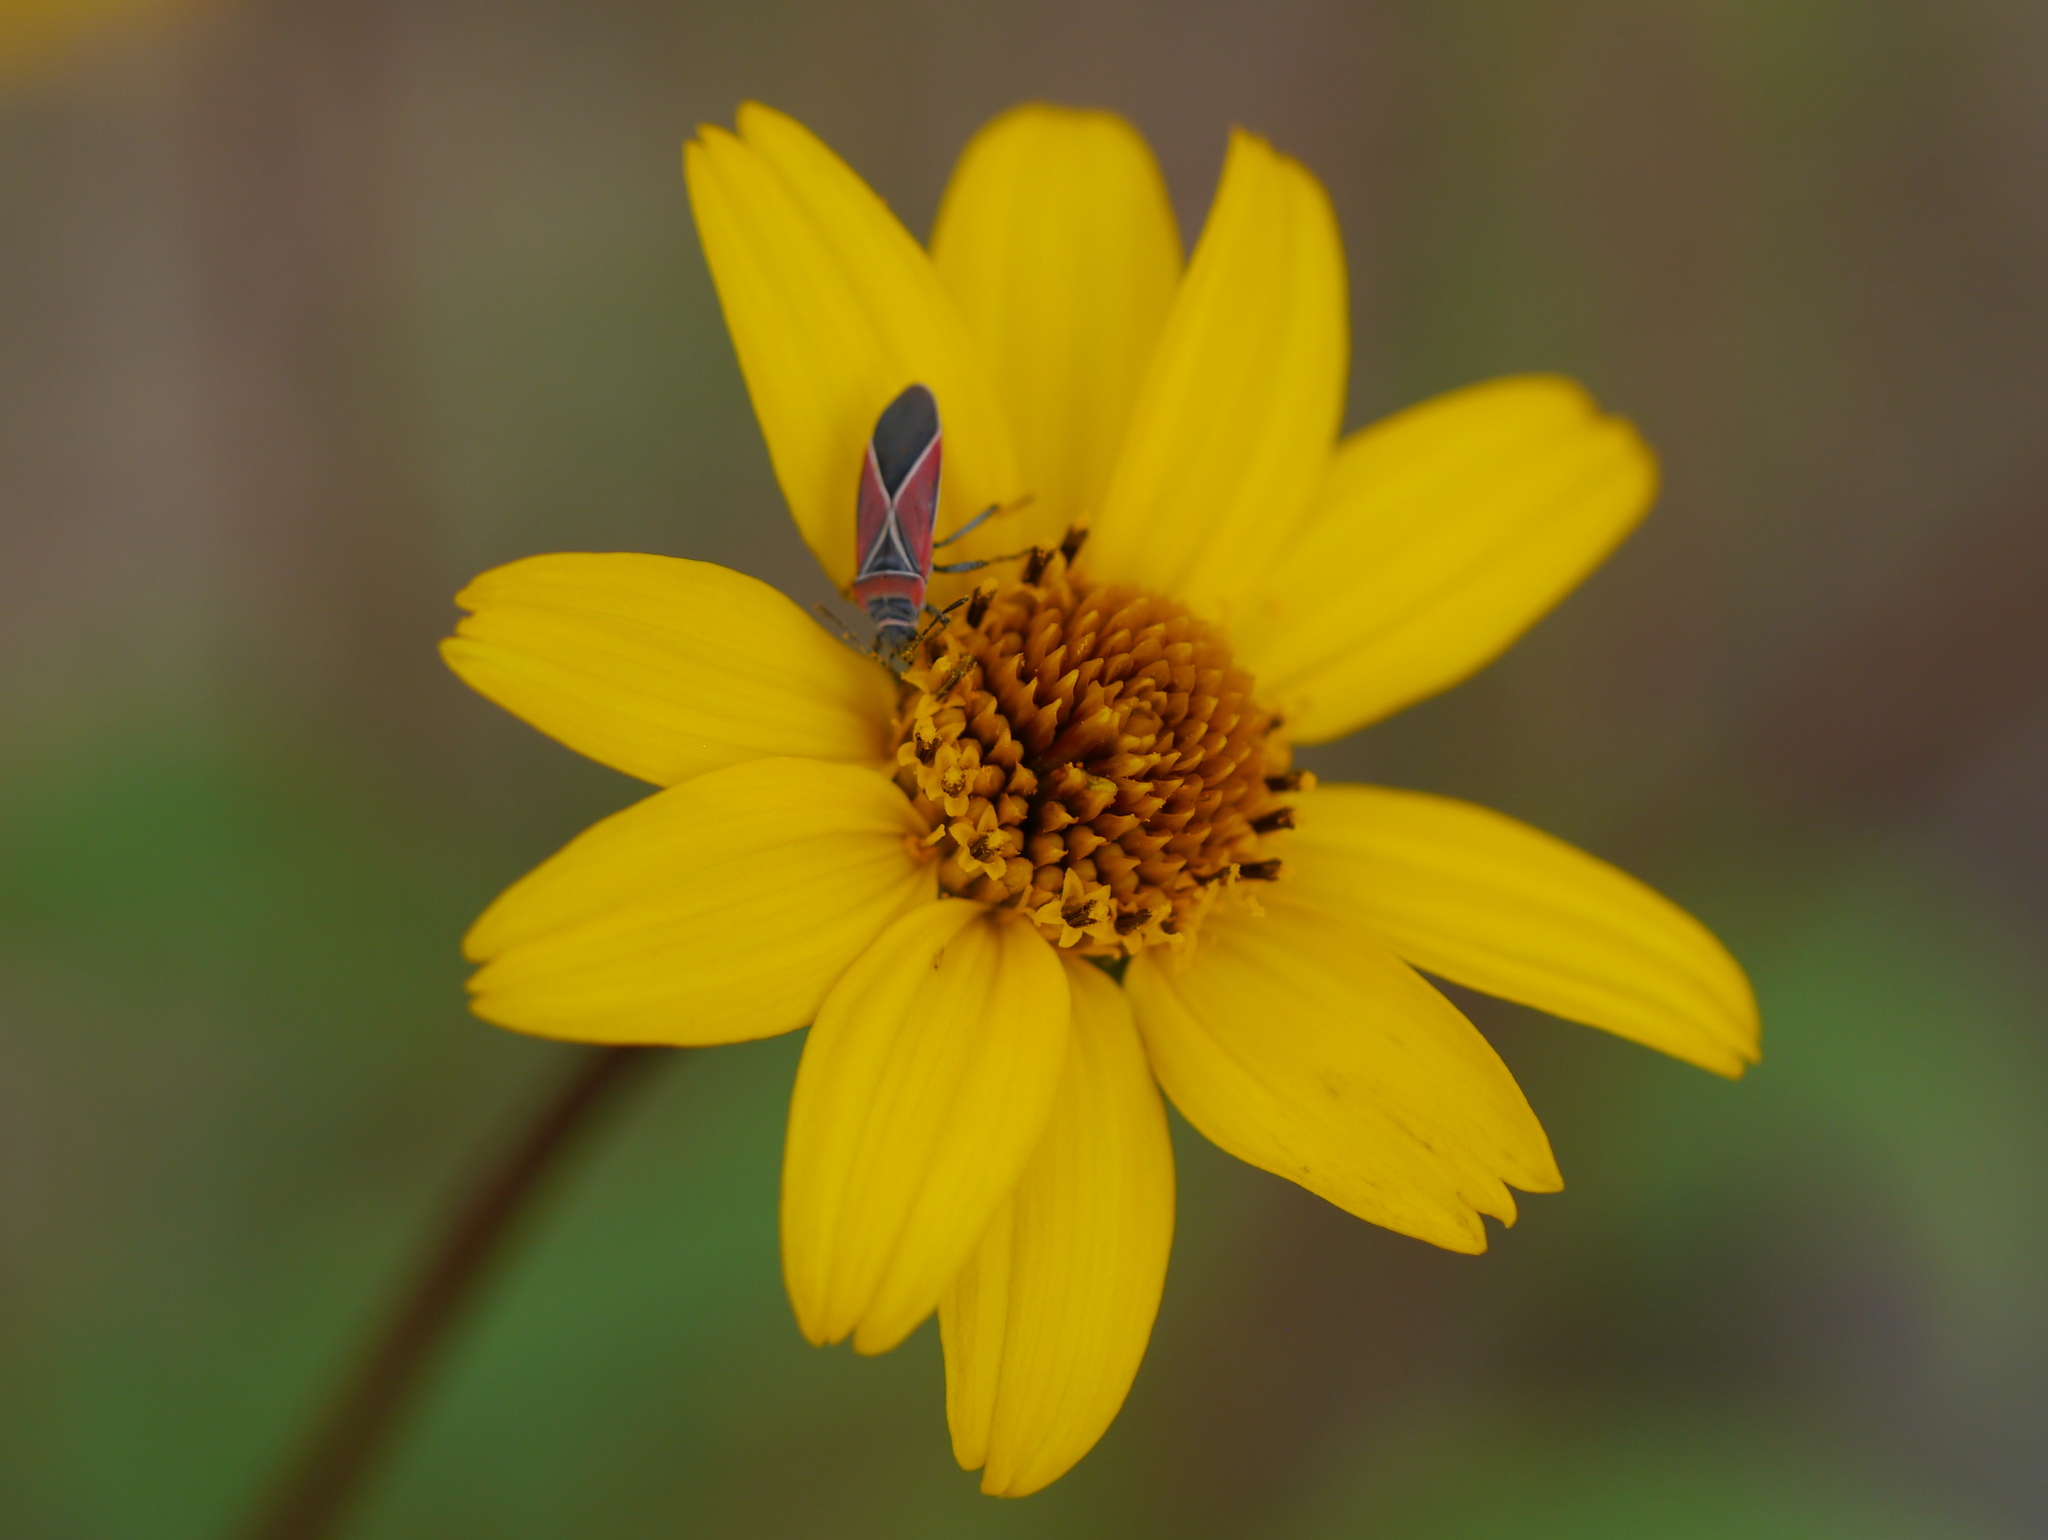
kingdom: Animalia
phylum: Arthropoda
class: Insecta
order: Hemiptera
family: Lygaeidae
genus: Neacoryphus
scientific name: Neacoryphus bicrucis
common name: Lygaeid bug
